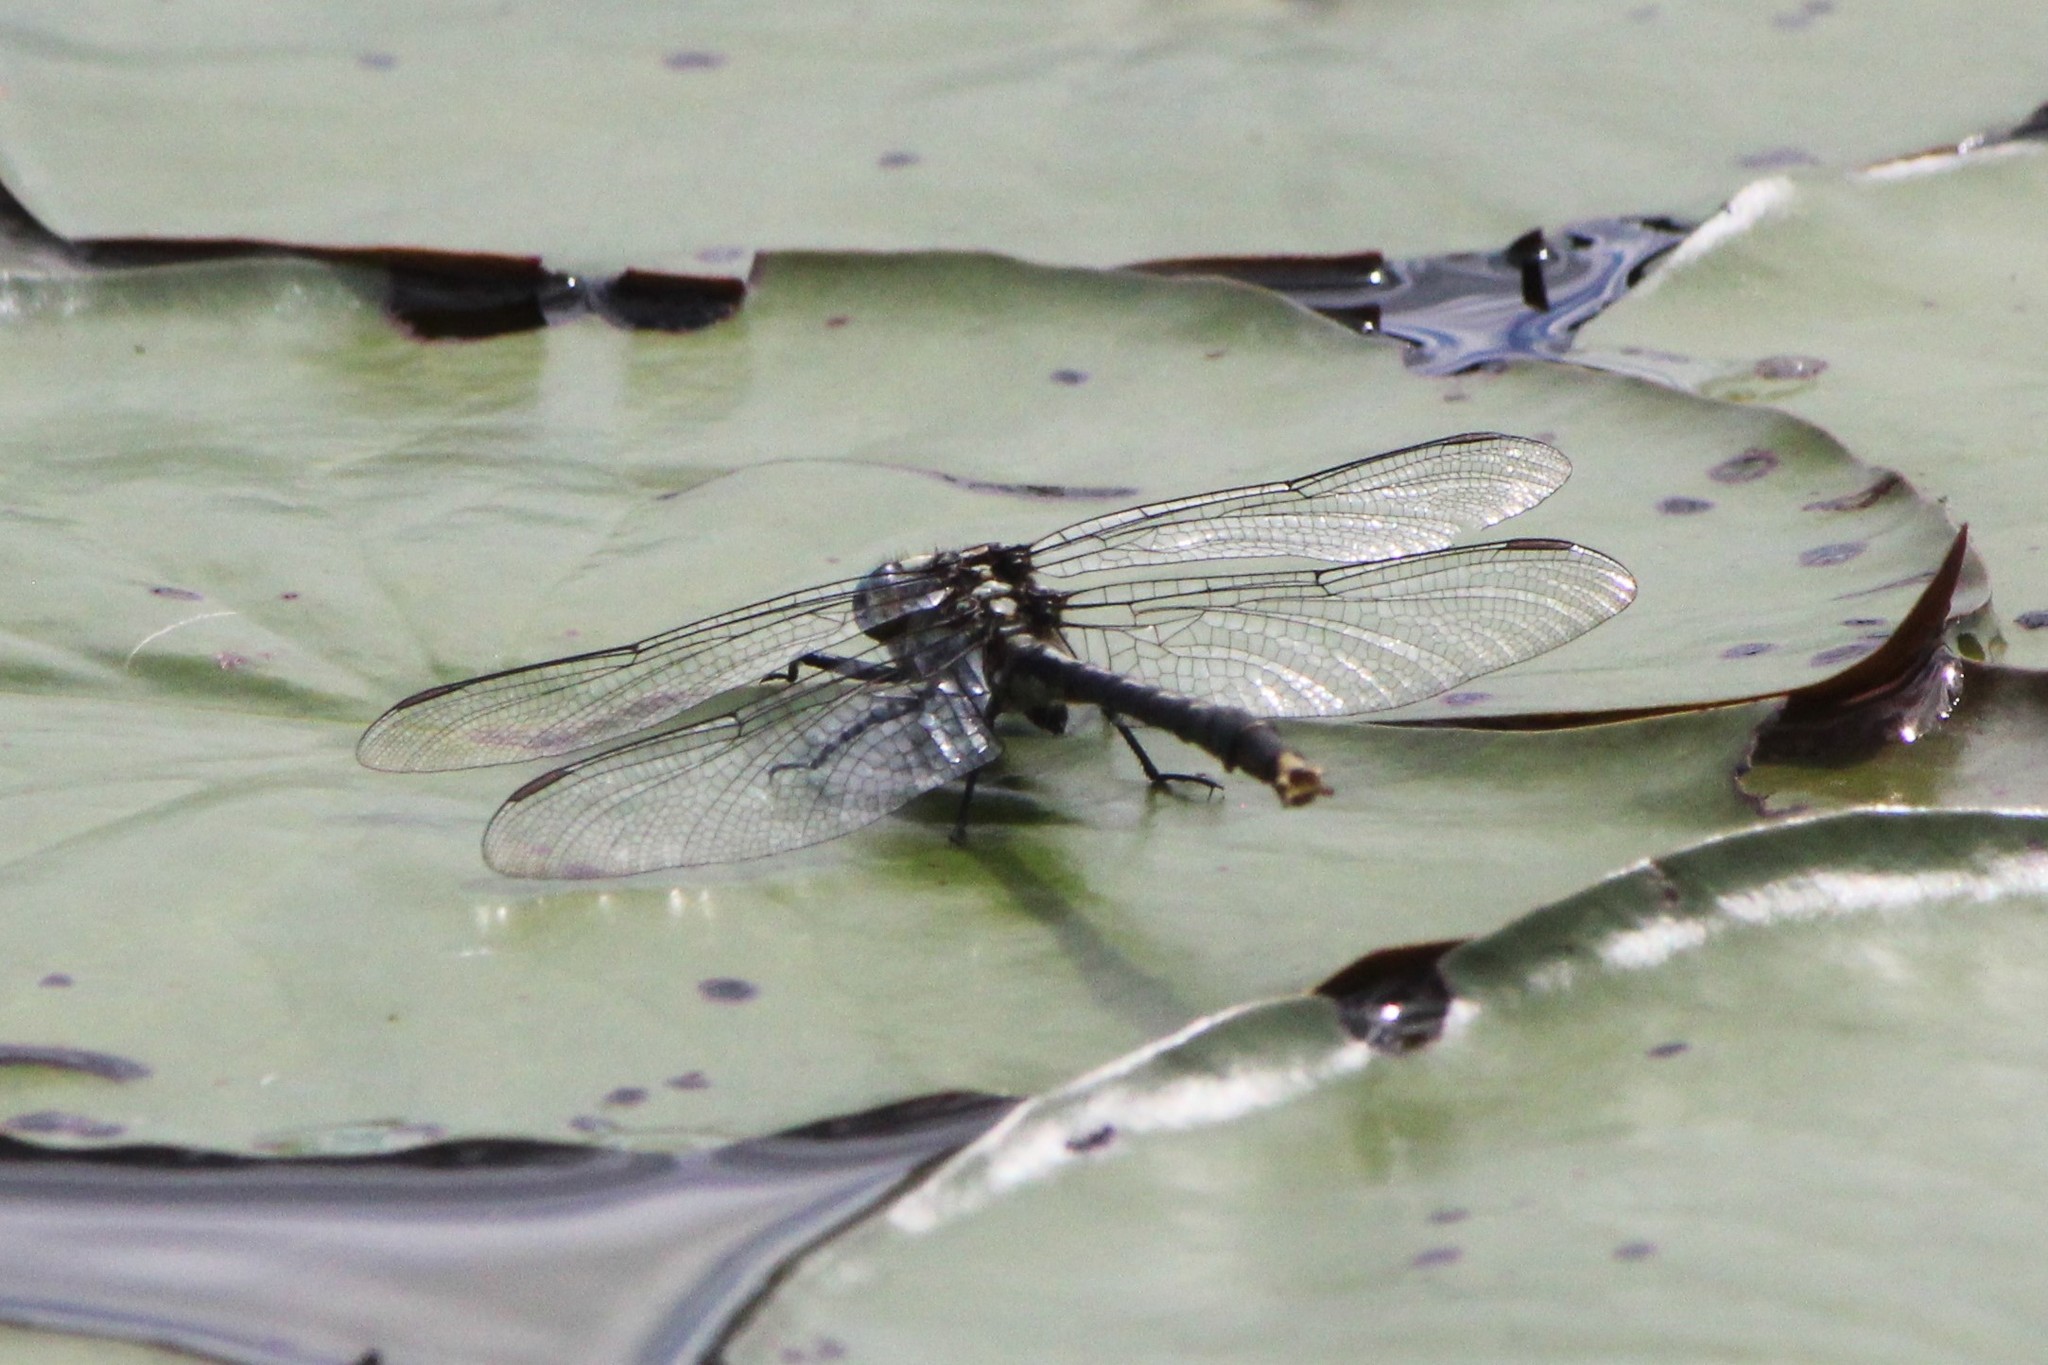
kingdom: Animalia
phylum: Arthropoda
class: Insecta
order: Odonata
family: Gomphidae
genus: Arigomphus
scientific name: Arigomphus furcifer
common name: Lilypad clubtail
